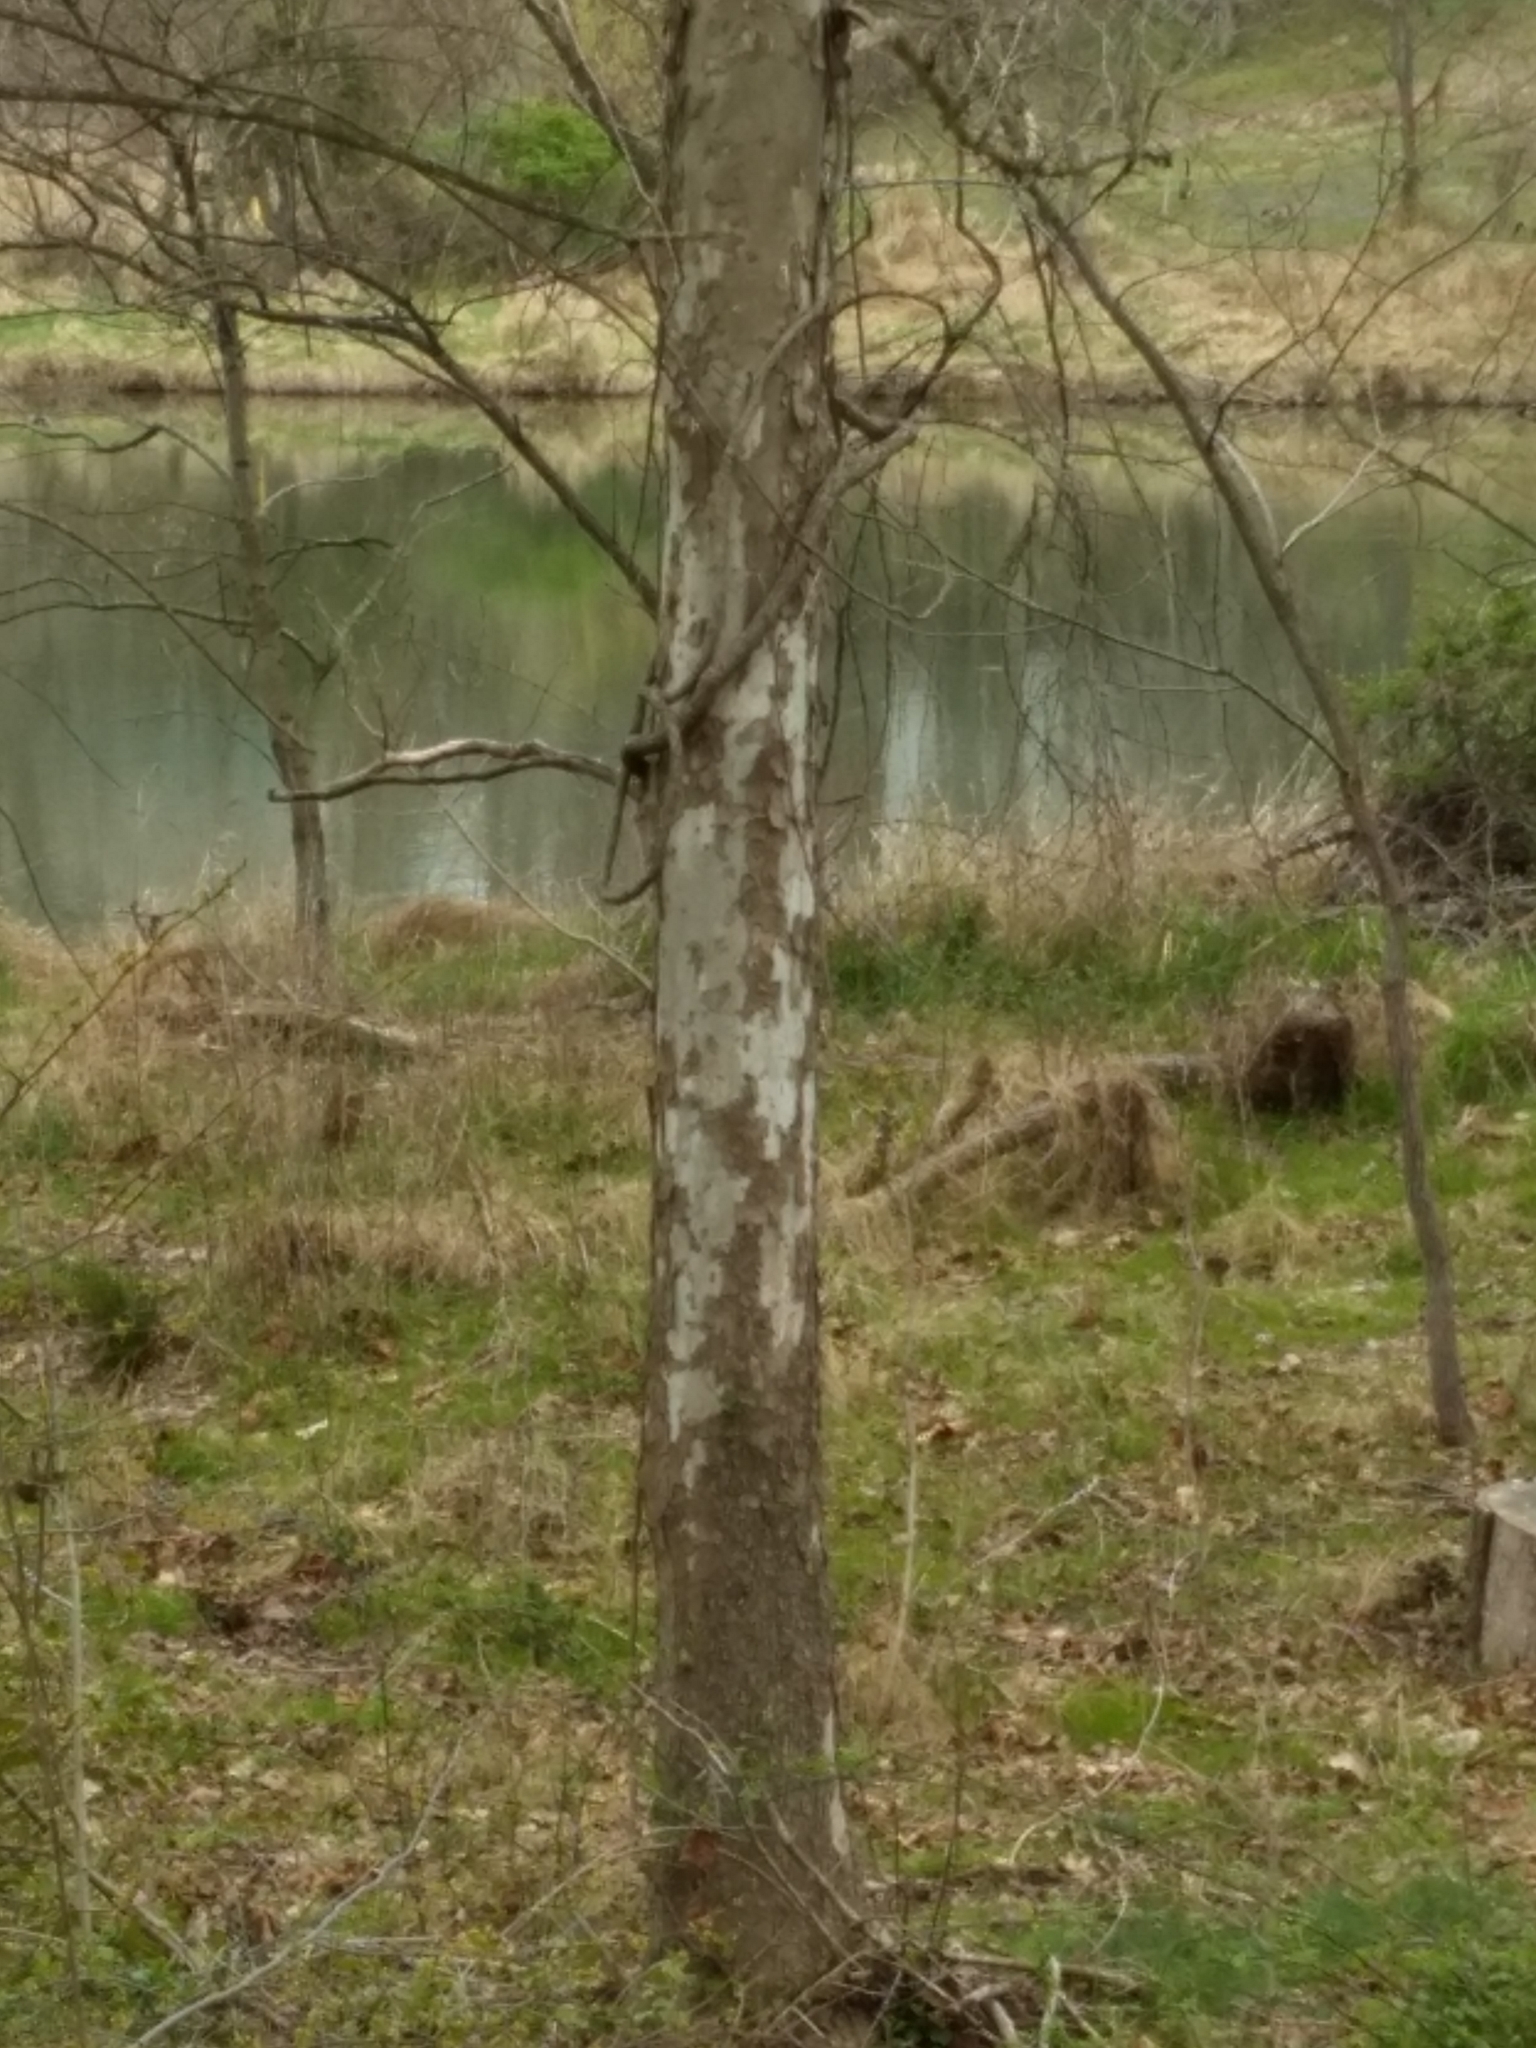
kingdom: Plantae
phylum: Tracheophyta
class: Magnoliopsida
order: Proteales
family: Platanaceae
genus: Platanus
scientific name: Platanus occidentalis
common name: American sycamore
